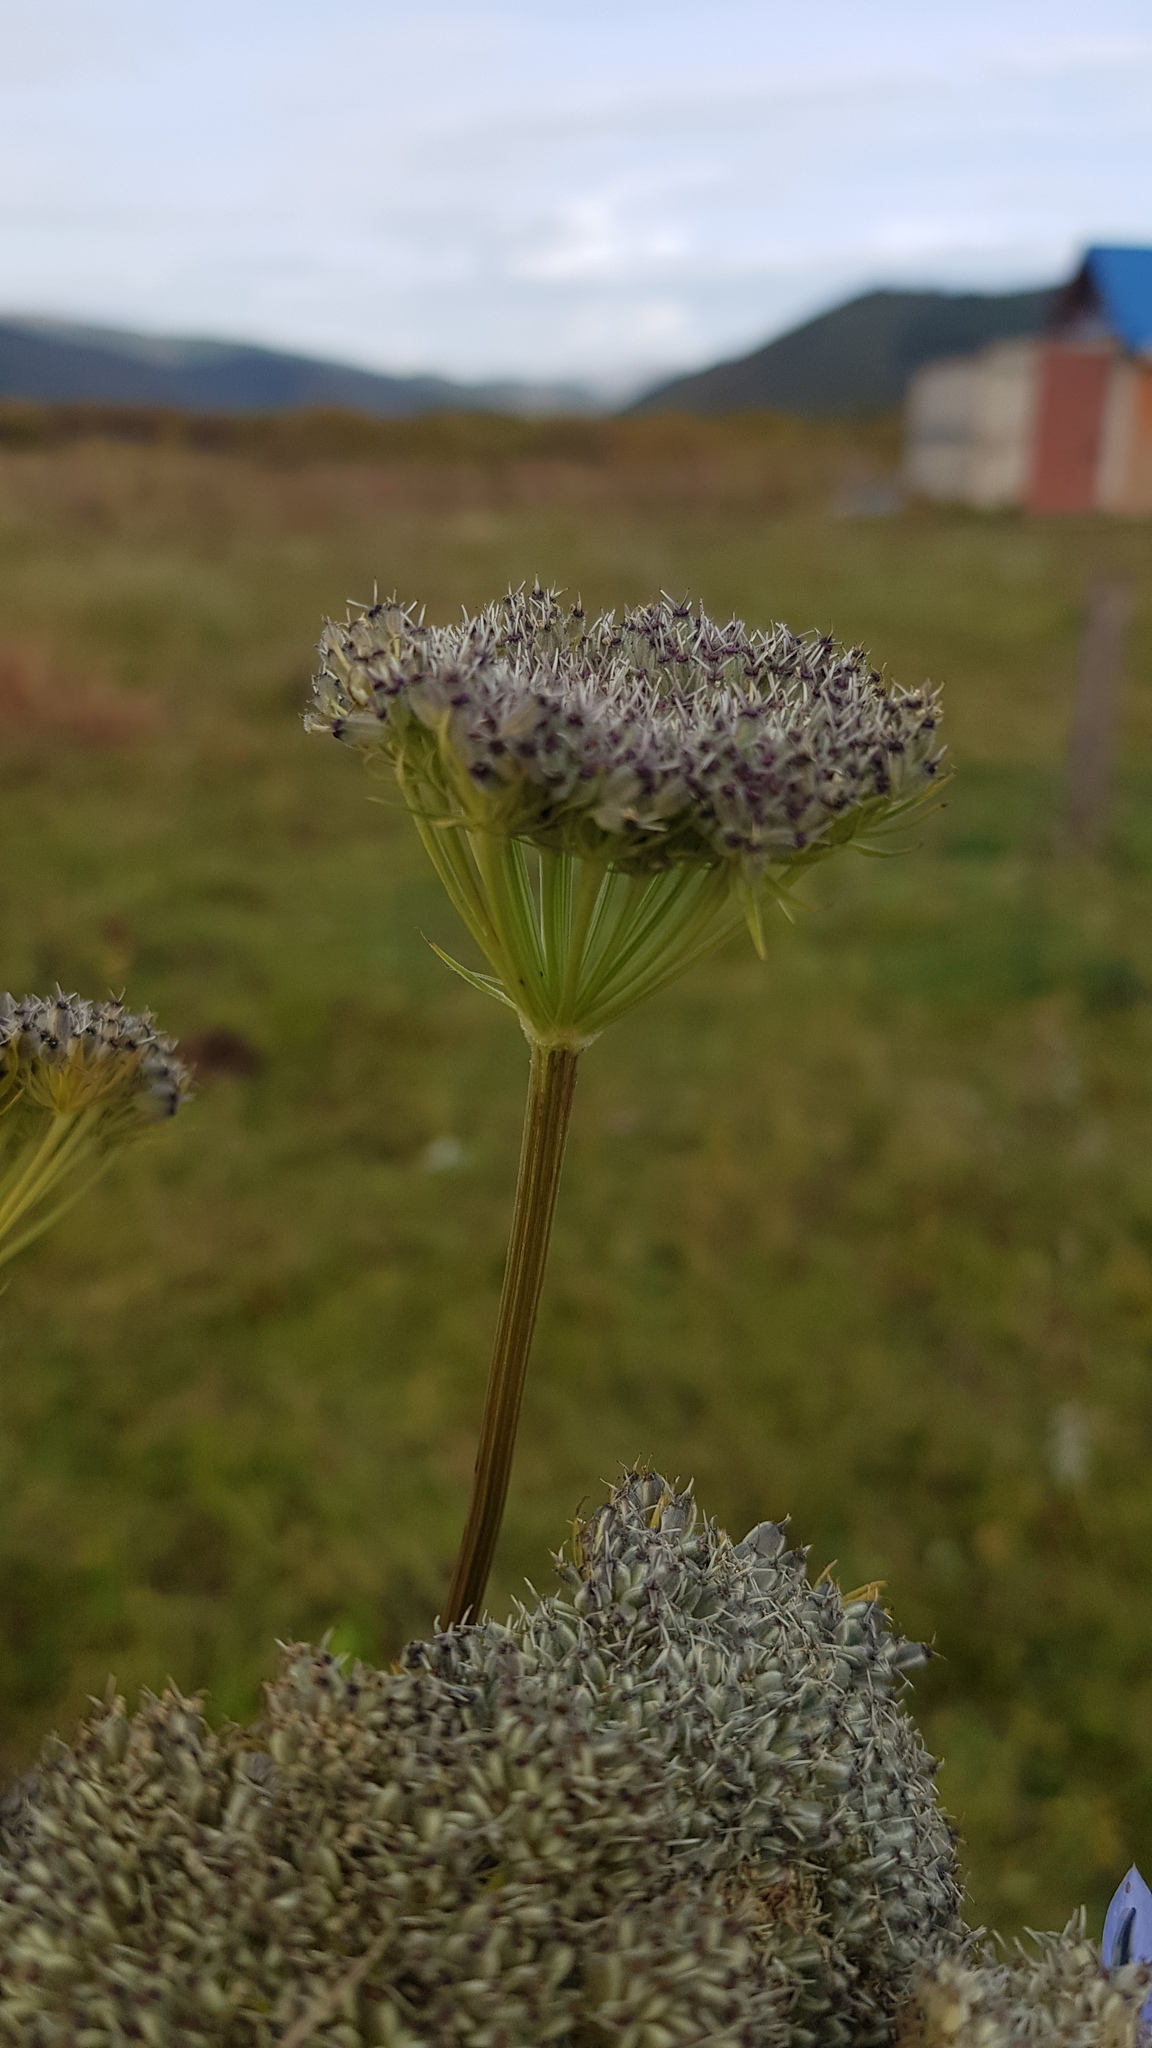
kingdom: Plantae
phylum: Tracheophyta
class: Magnoliopsida
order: Apiales
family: Apiaceae
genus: Seseli
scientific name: Seseli condensatum
